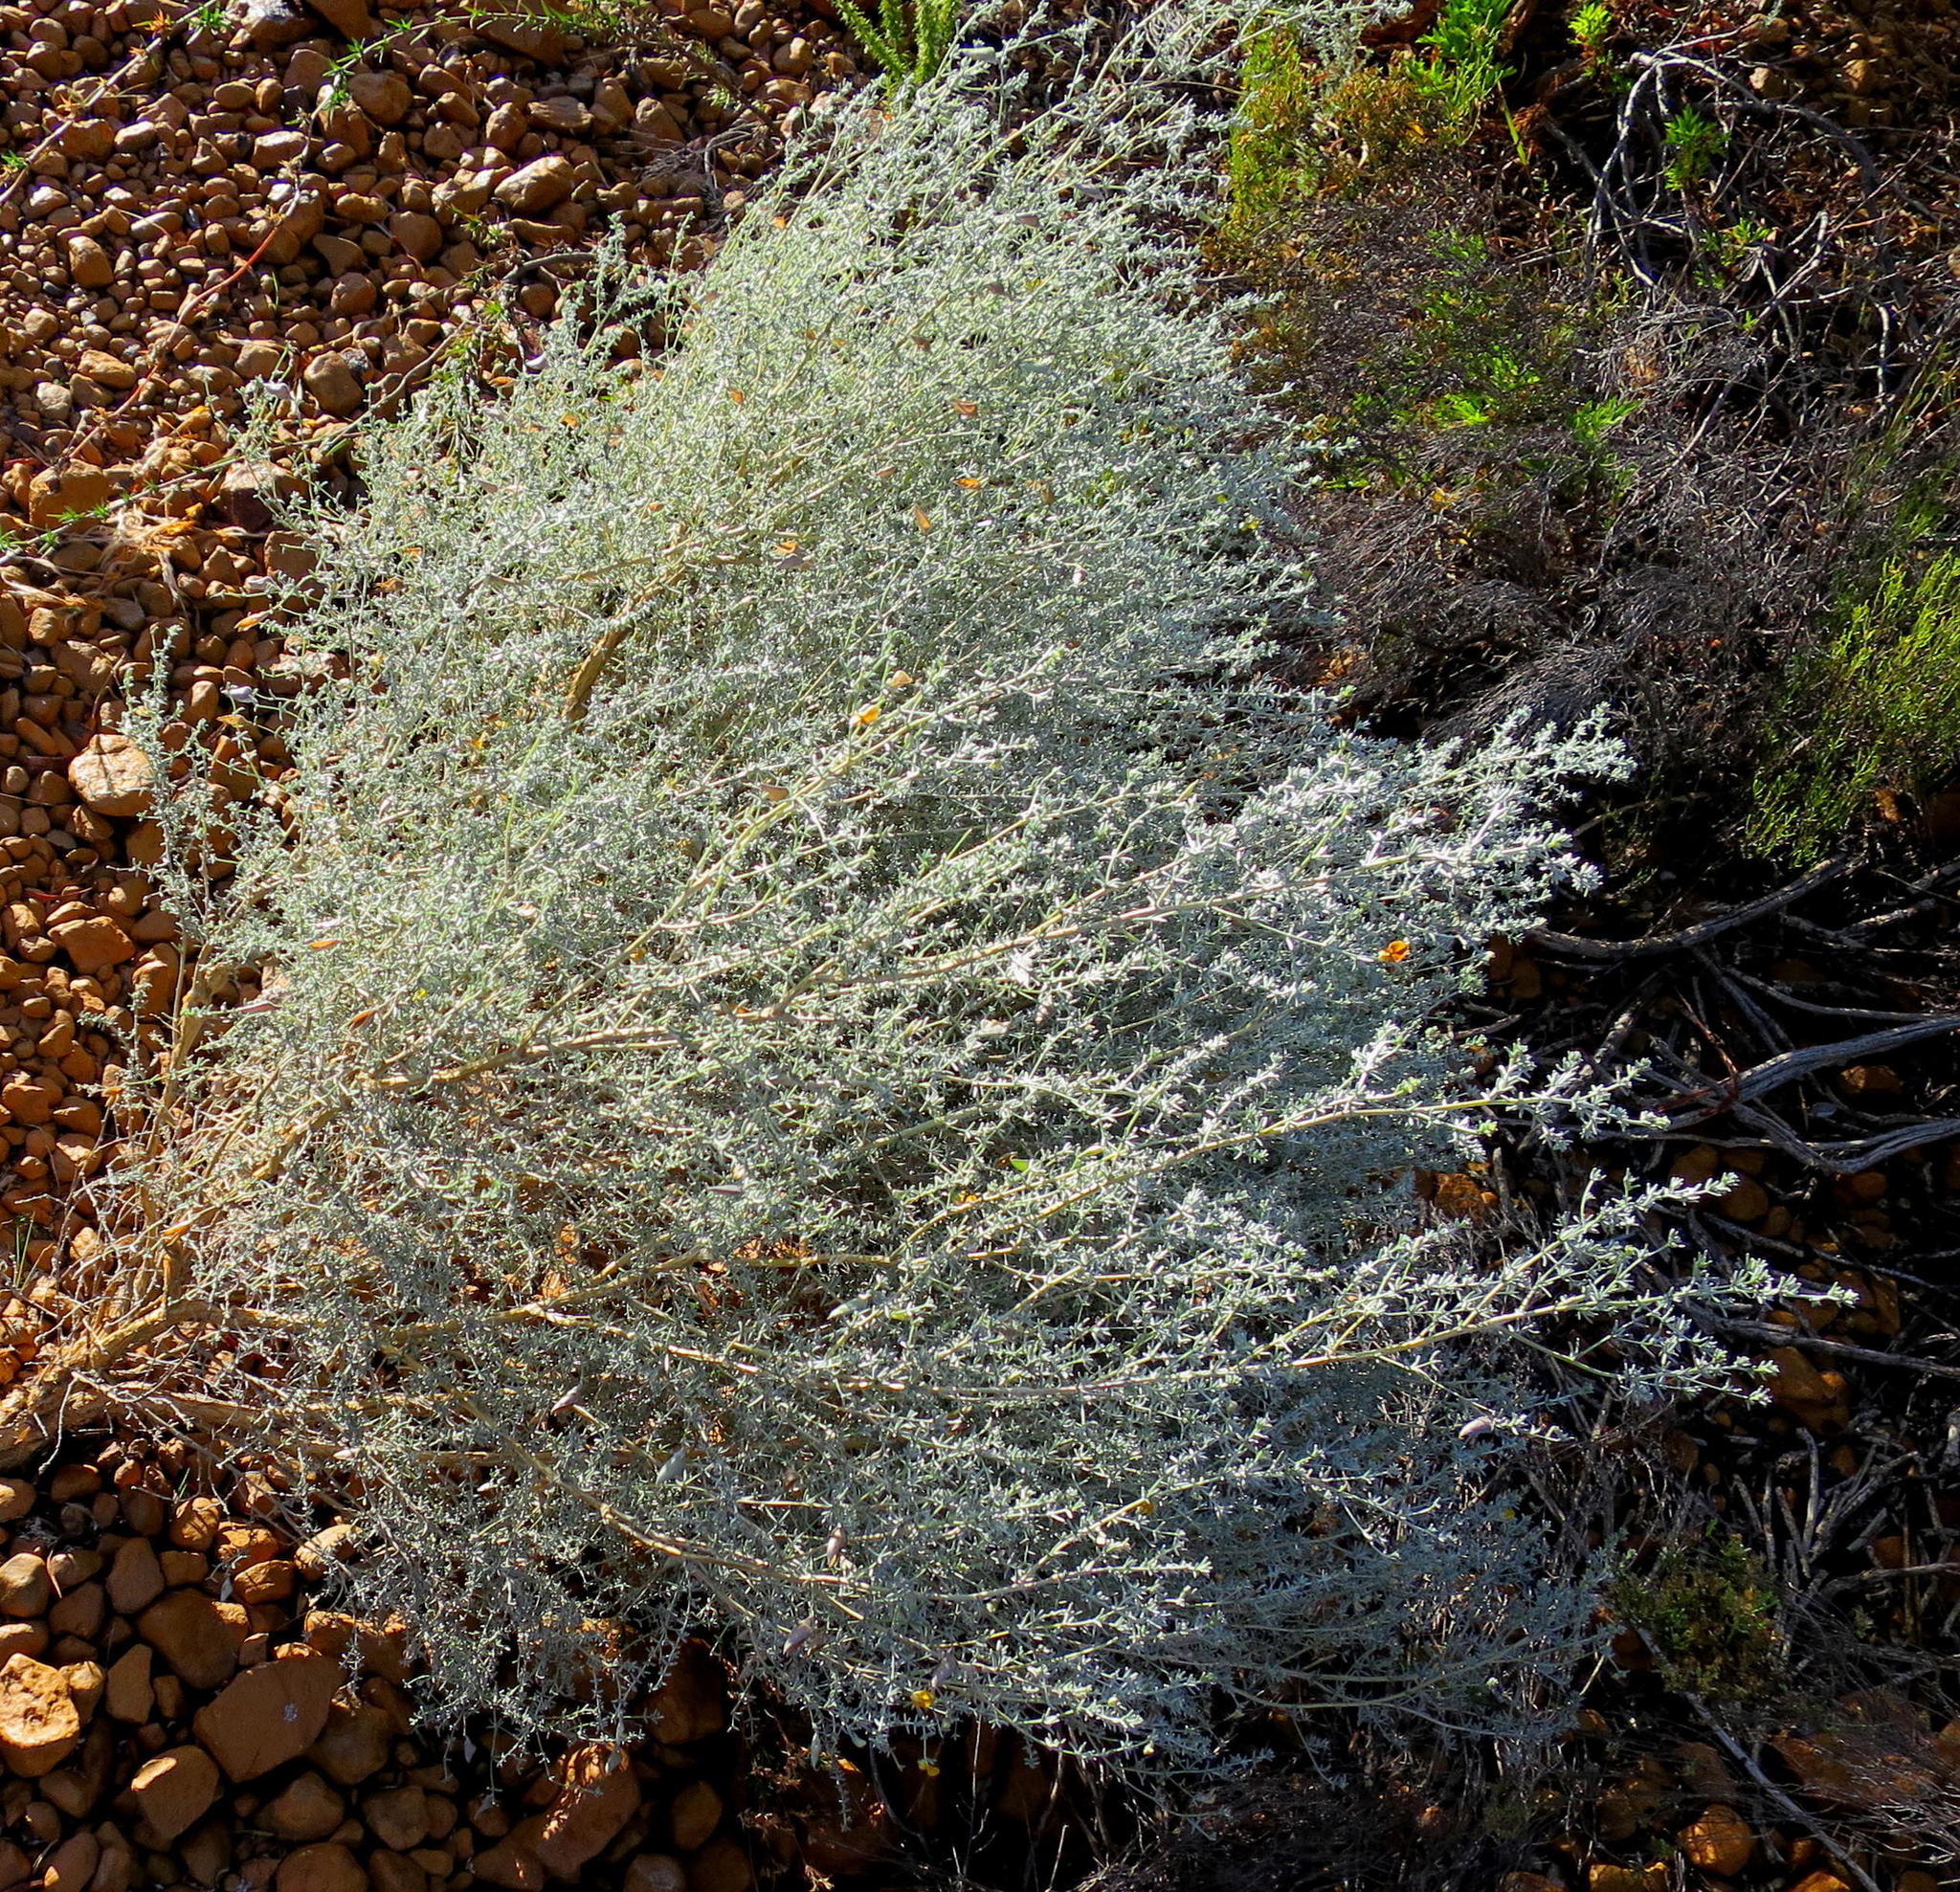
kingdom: Plantae
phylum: Tracheophyta
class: Magnoliopsida
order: Fabales
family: Fabaceae
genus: Aspalathus
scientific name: Aspalathus pedunculata
